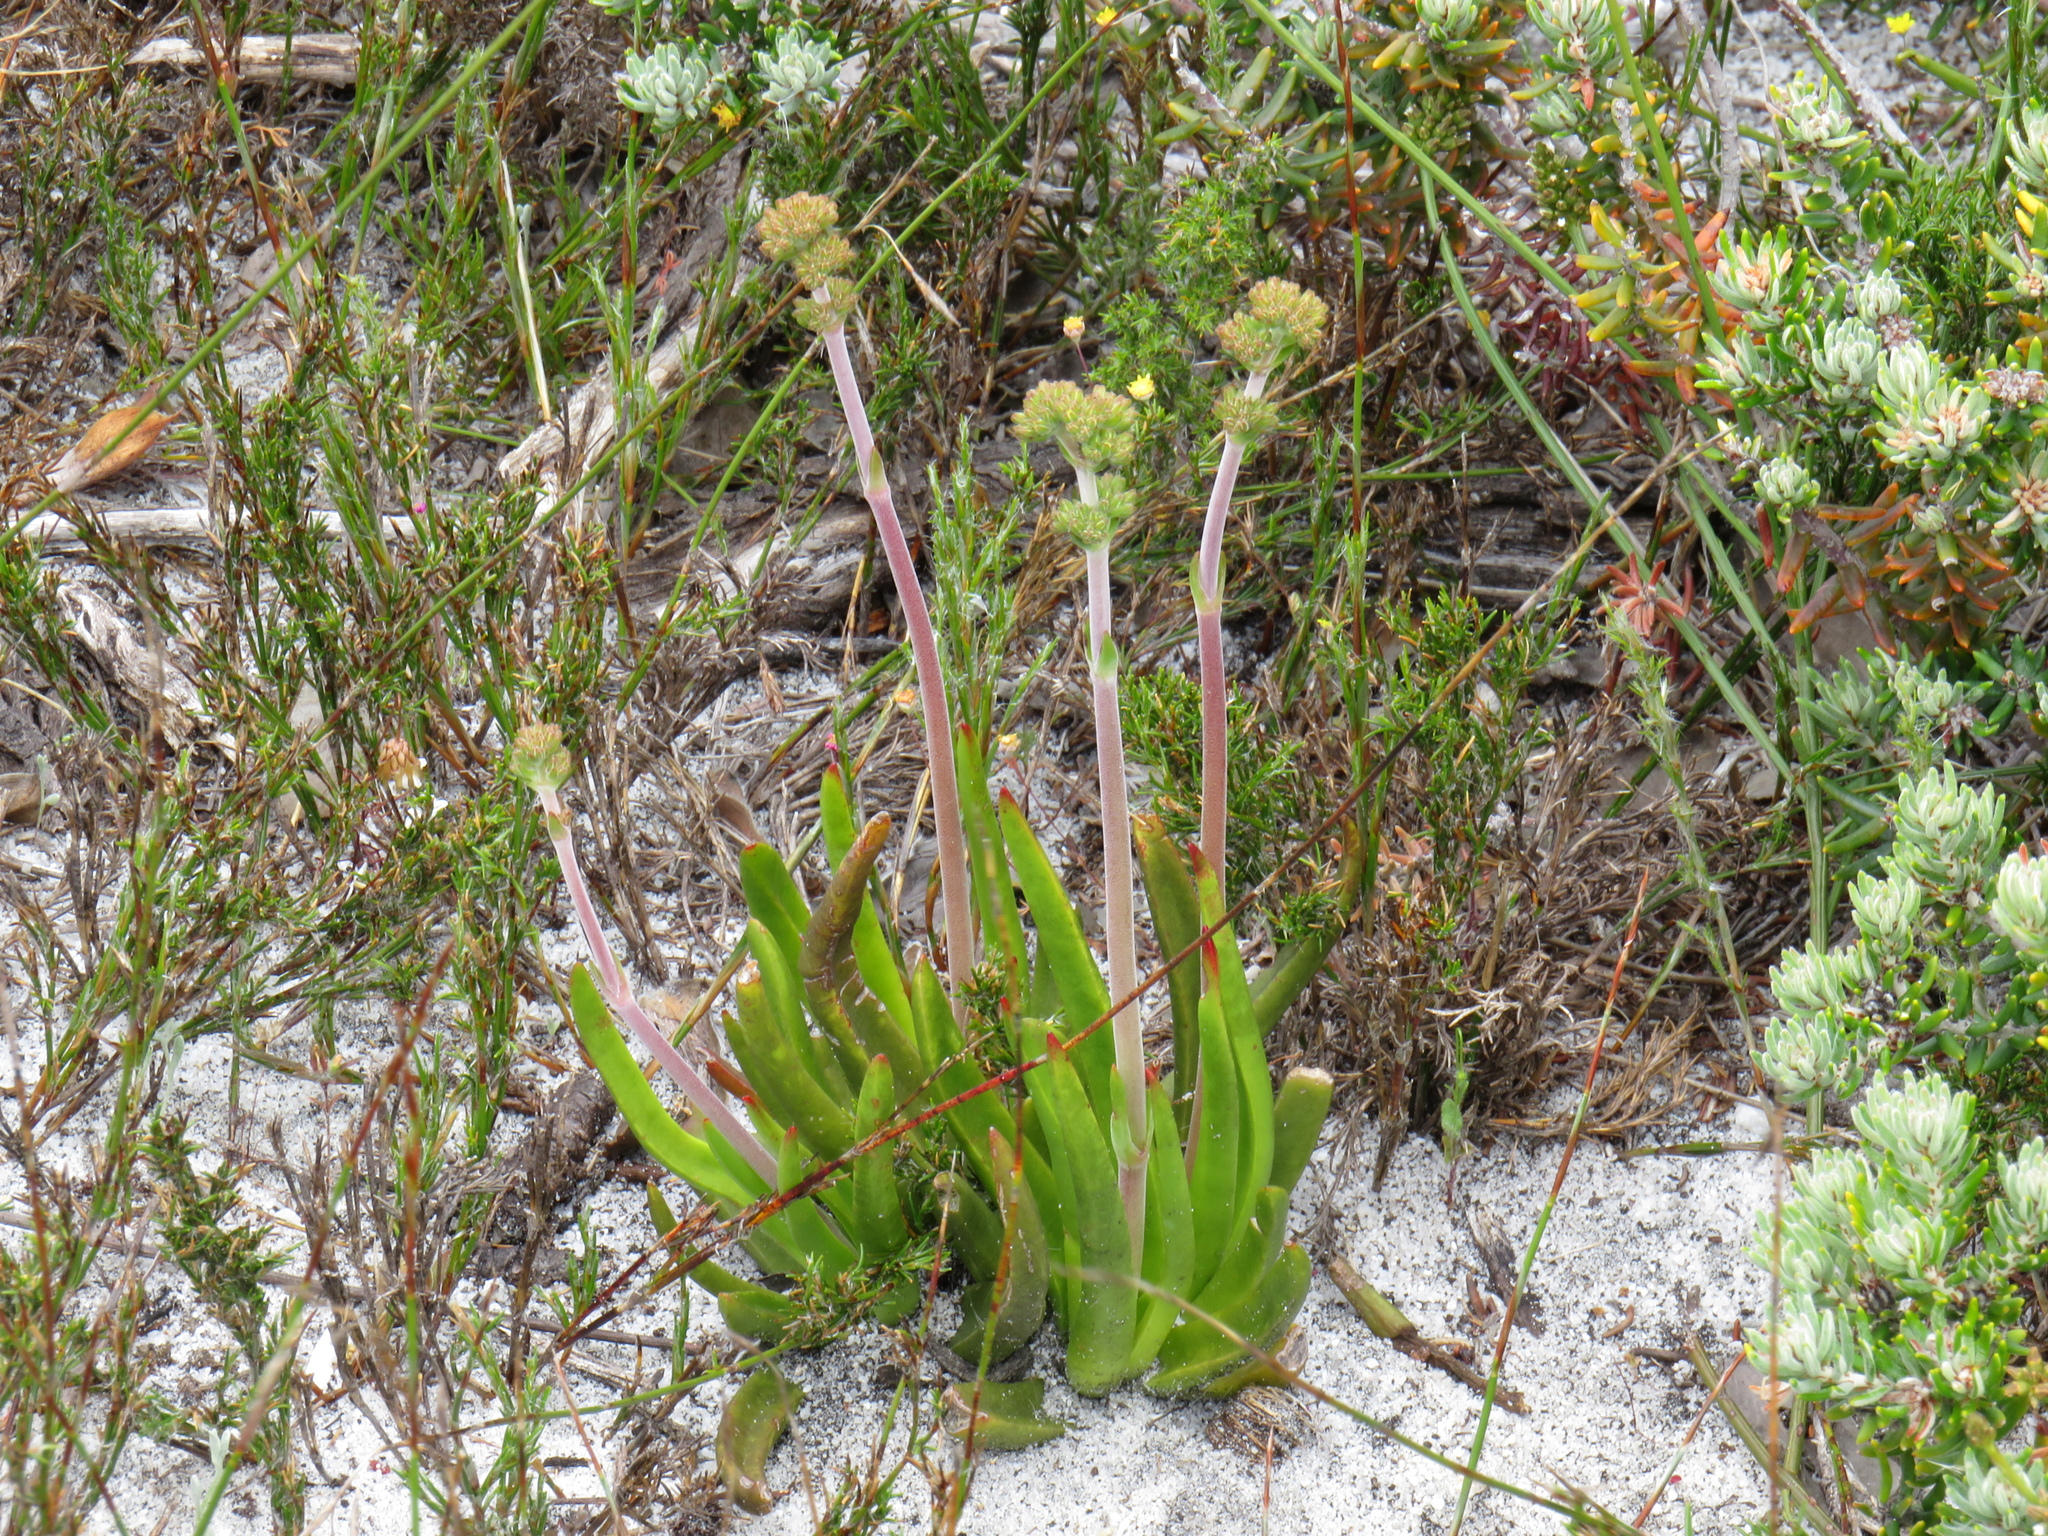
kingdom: Plantae
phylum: Tracheophyta
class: Magnoliopsida
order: Saxifragales
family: Crassulaceae
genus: Crassula
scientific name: Crassula nudicaulis
